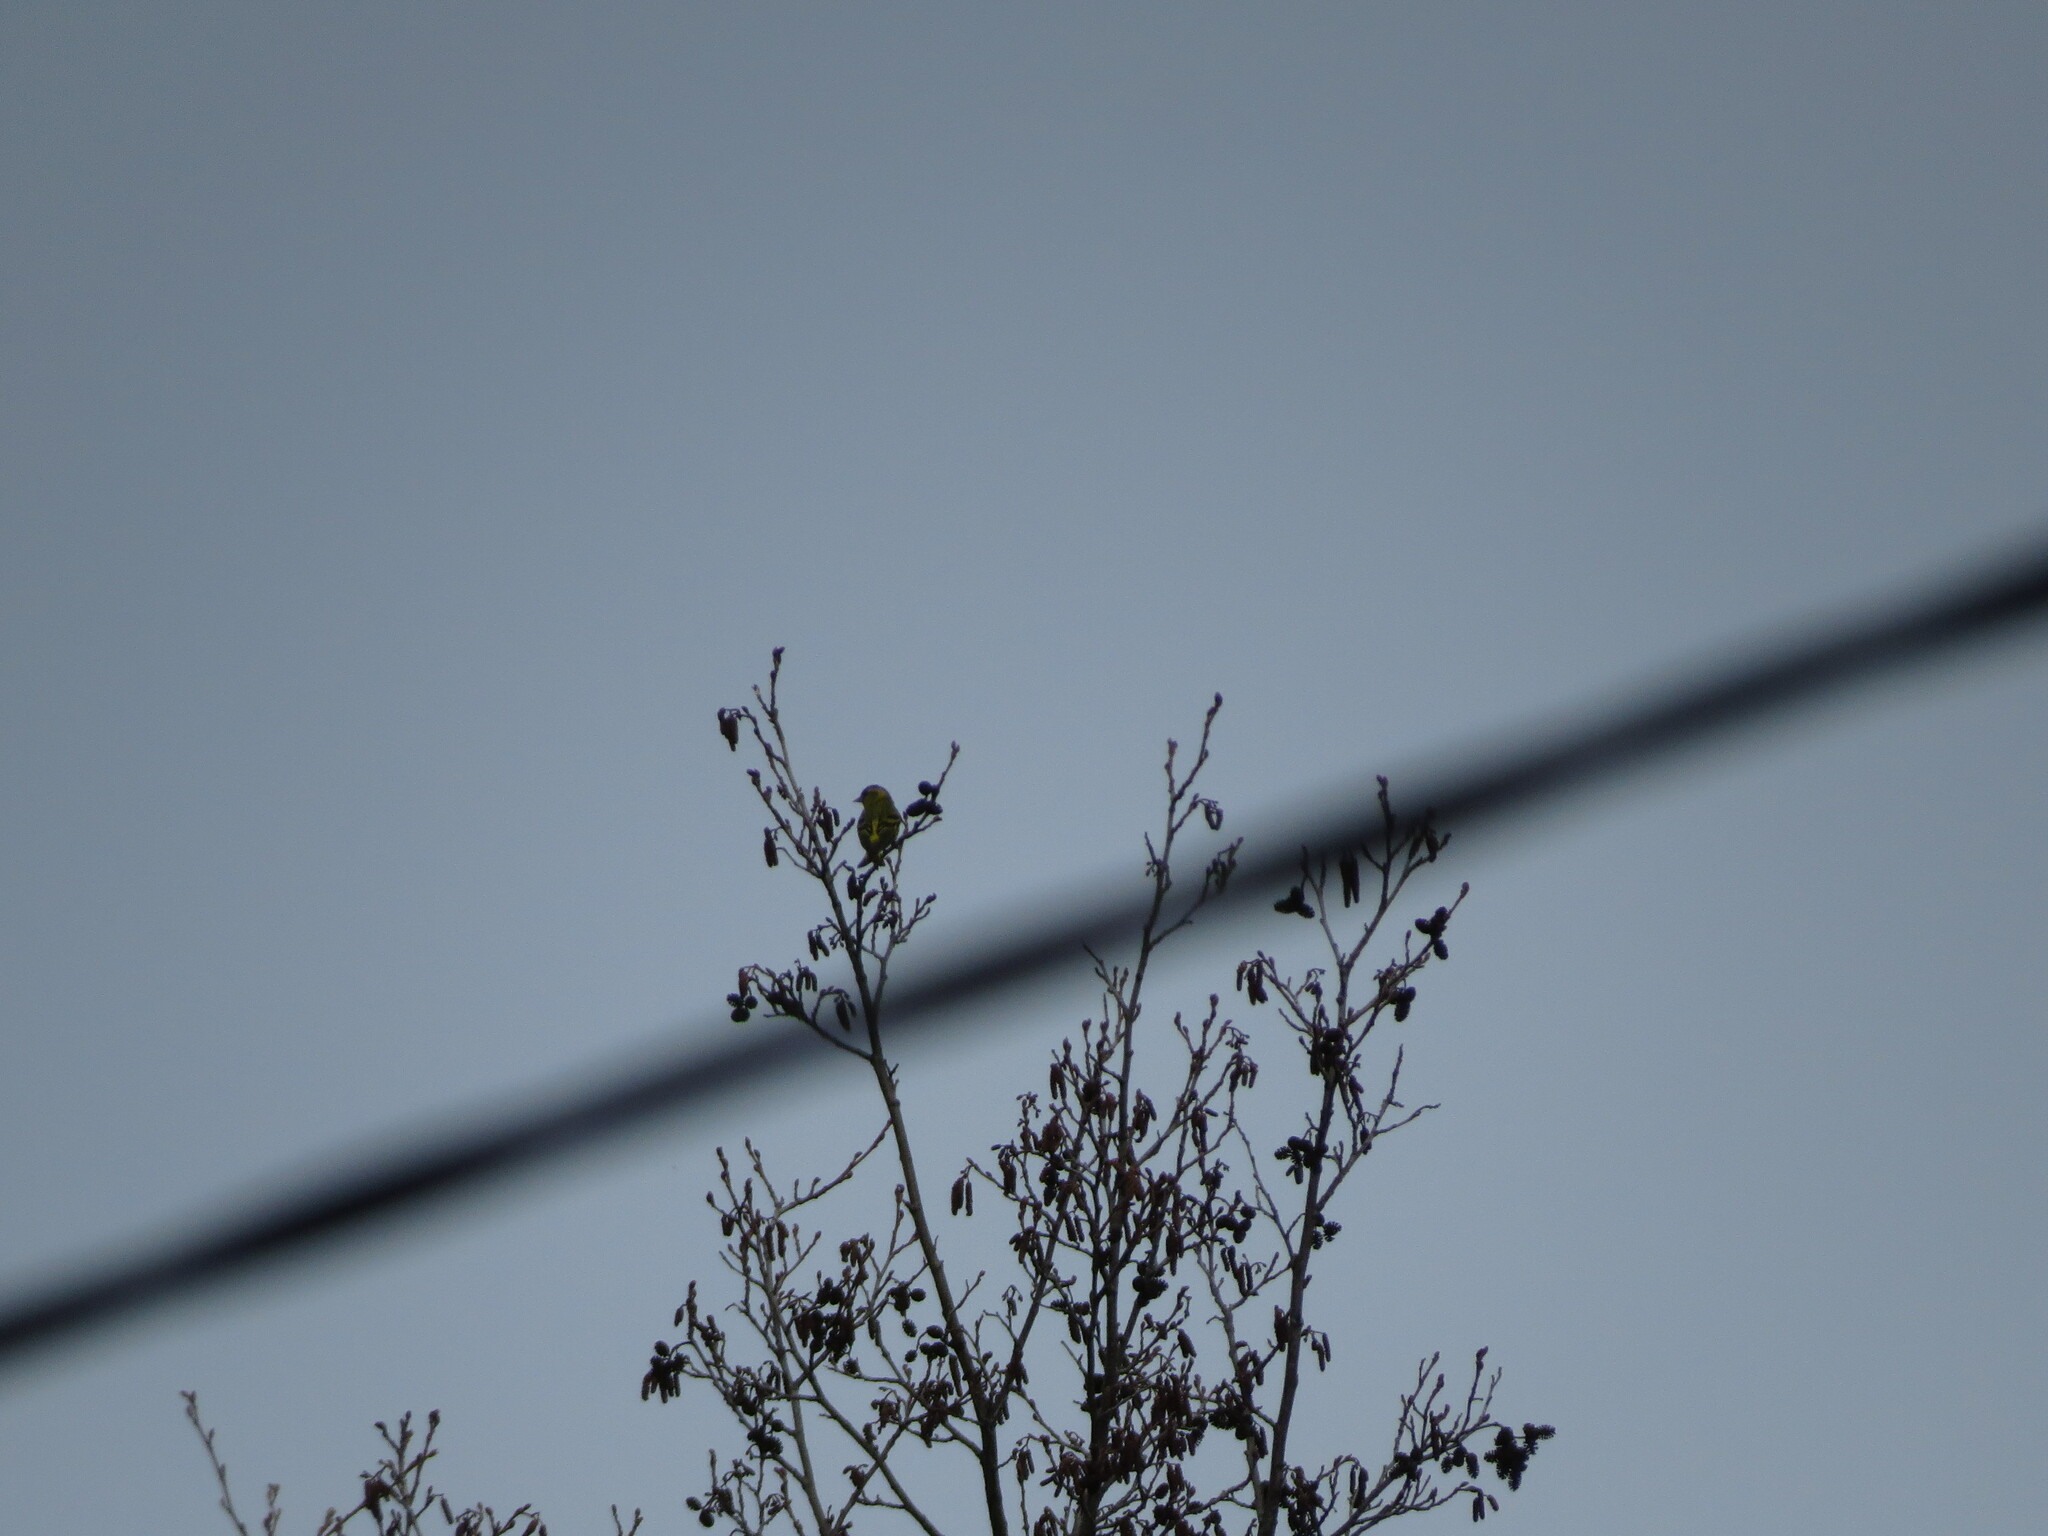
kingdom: Animalia
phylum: Chordata
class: Aves
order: Passeriformes
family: Fringillidae
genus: Spinus
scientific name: Spinus spinus
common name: Eurasian siskin
